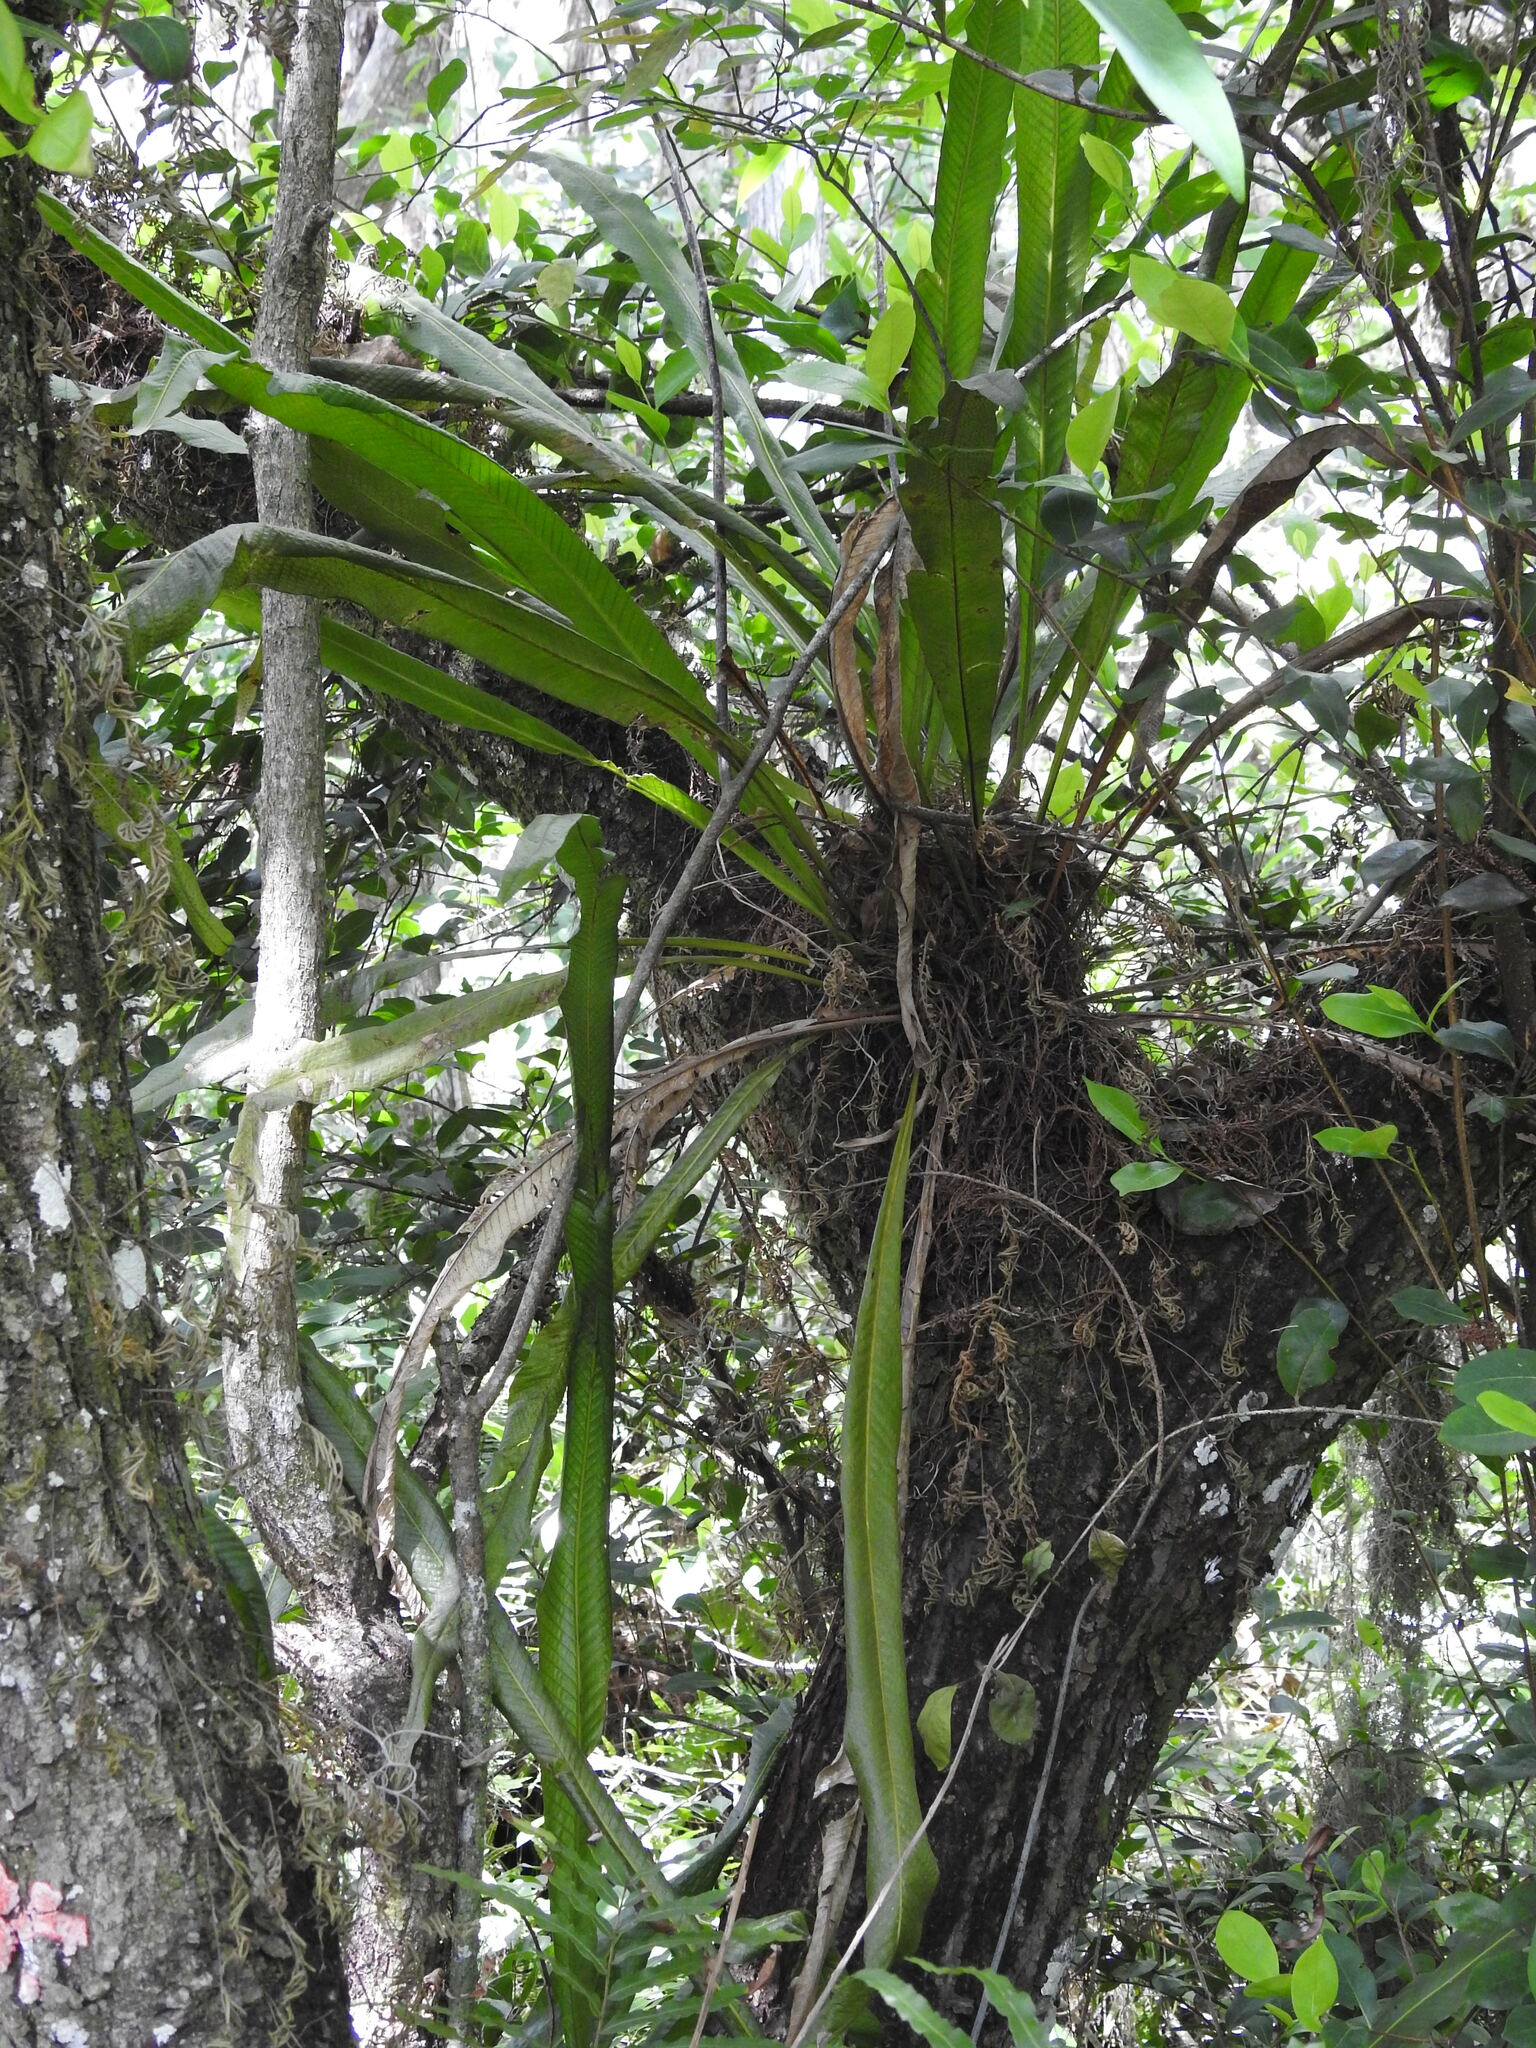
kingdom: Plantae
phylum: Tracheophyta
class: Polypodiopsida
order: Polypodiales
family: Polypodiaceae
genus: Campyloneurum
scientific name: Campyloneurum phyllitidis
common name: Cow-tongue fern
